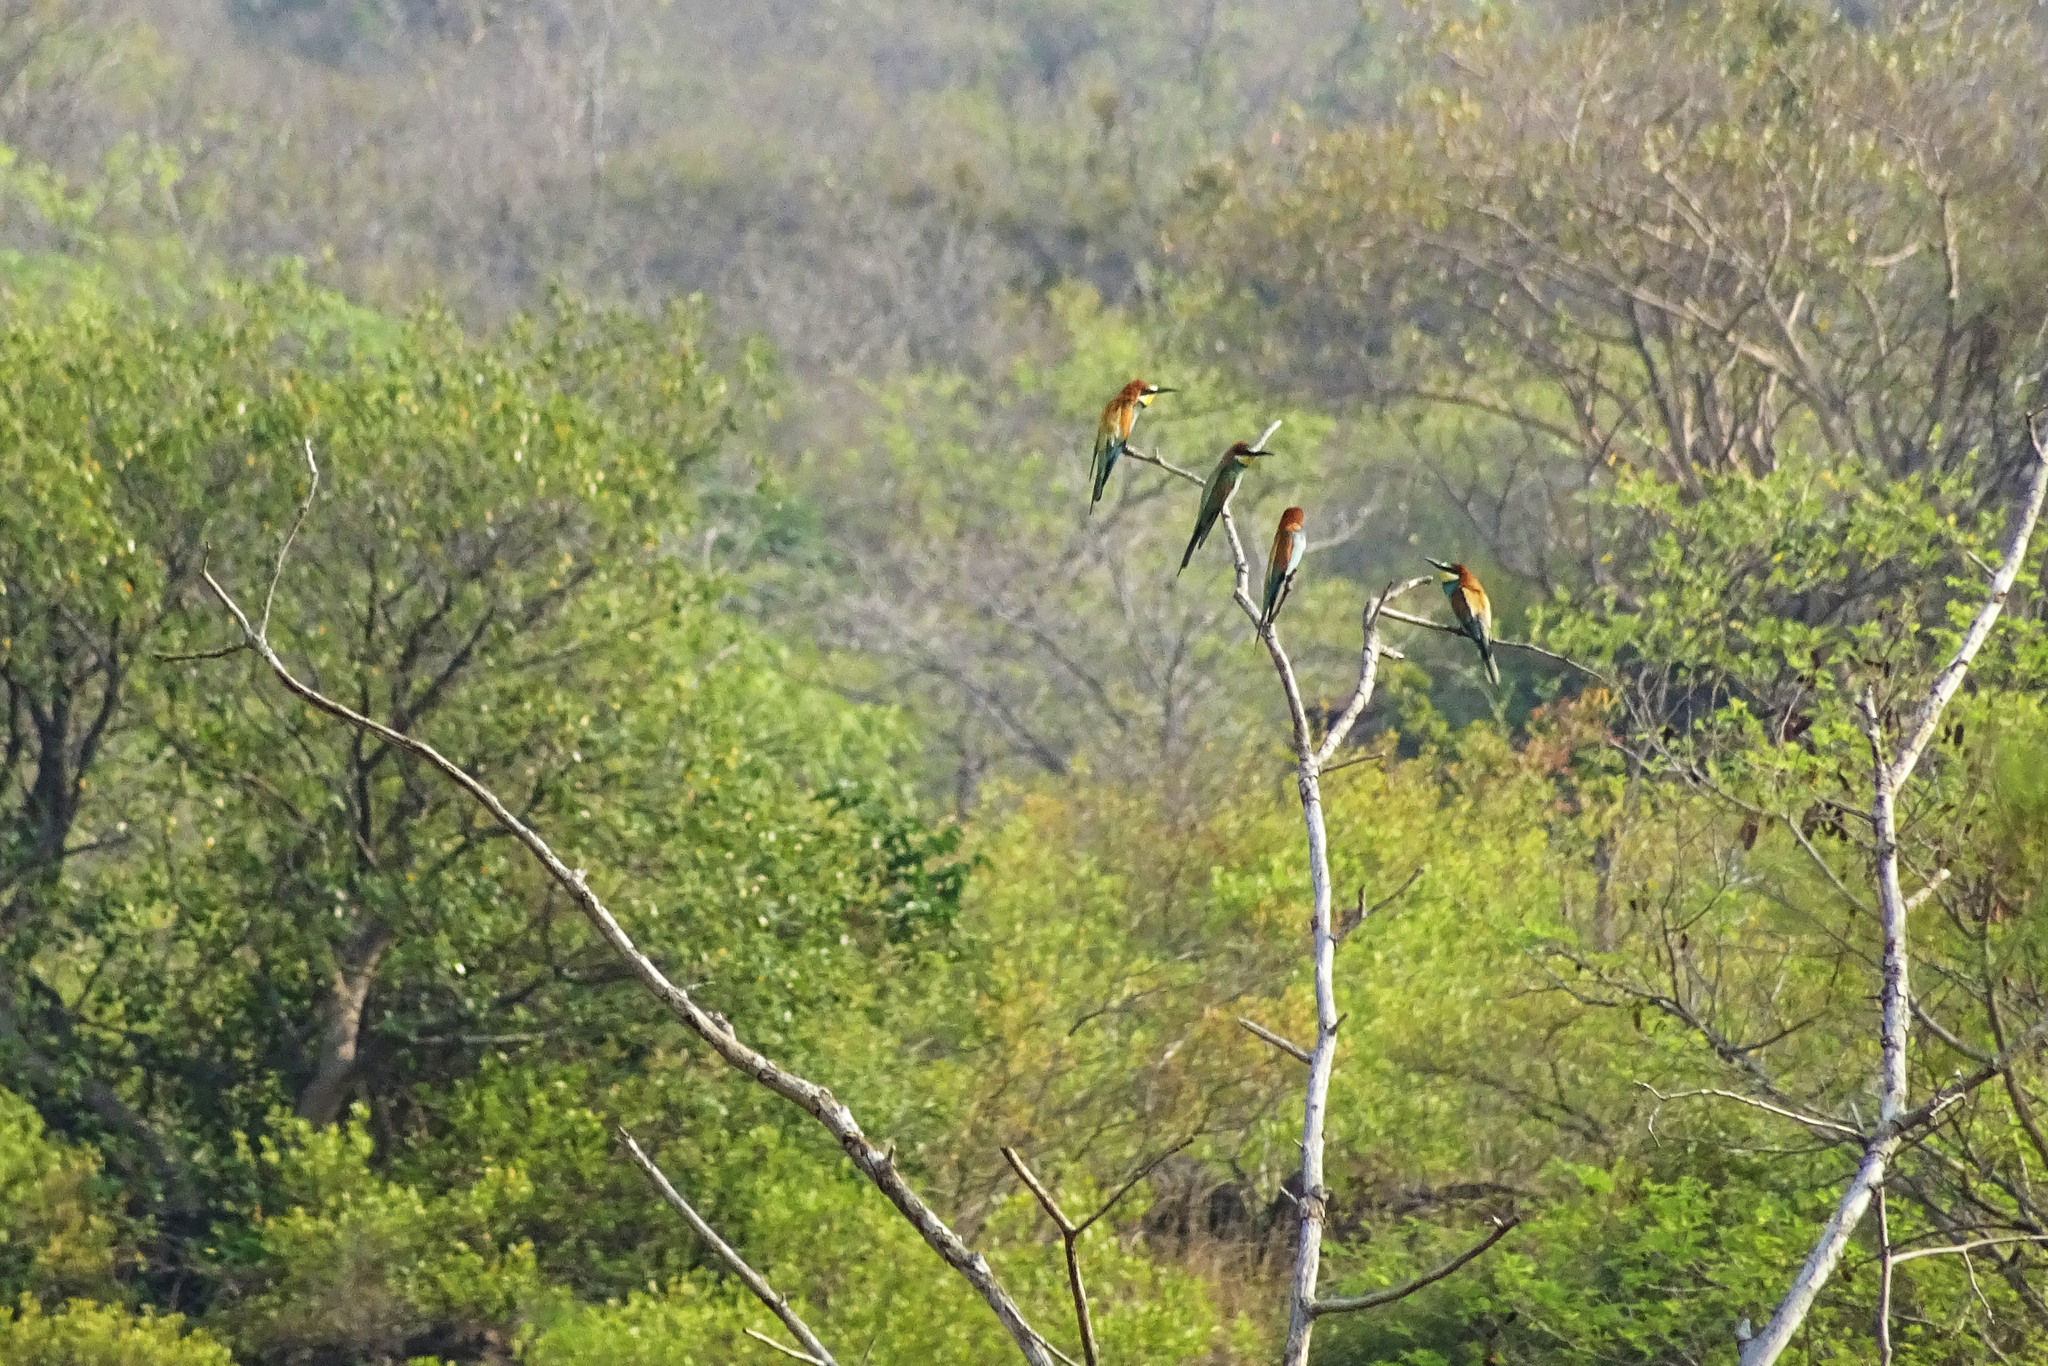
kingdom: Animalia
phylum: Chordata
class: Aves
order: Coraciiformes
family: Meropidae
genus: Merops
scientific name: Merops apiaster
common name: European bee-eater
